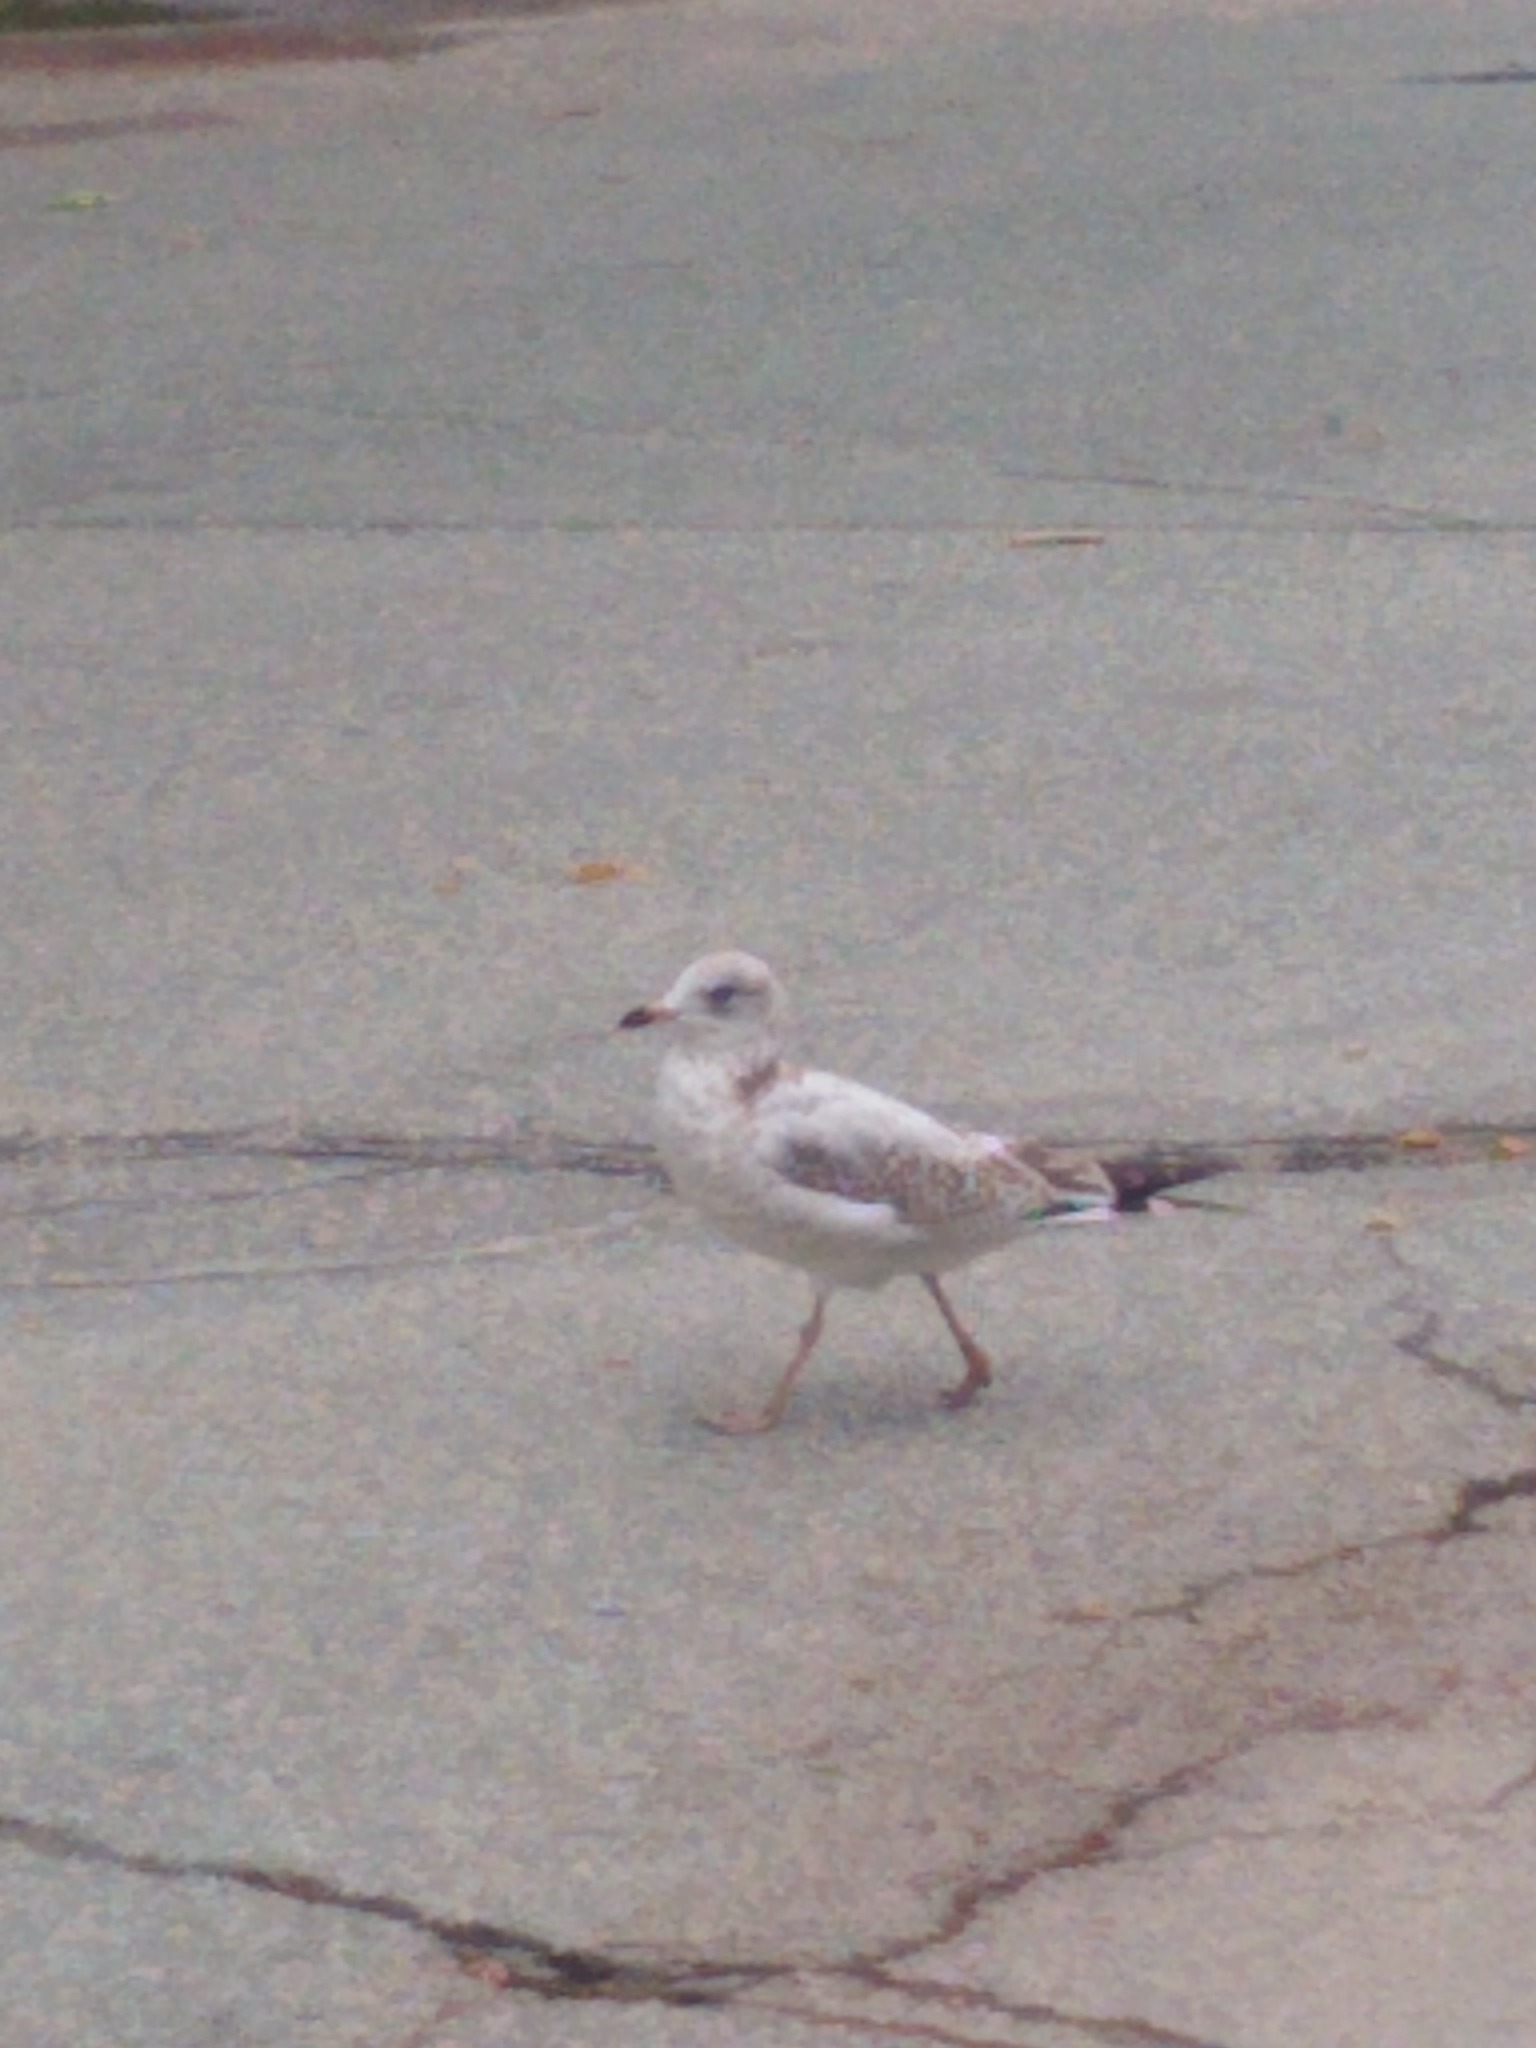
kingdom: Animalia
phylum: Chordata
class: Aves
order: Charadriiformes
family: Laridae
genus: Larus
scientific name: Larus delawarensis
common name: Ring-billed gull
